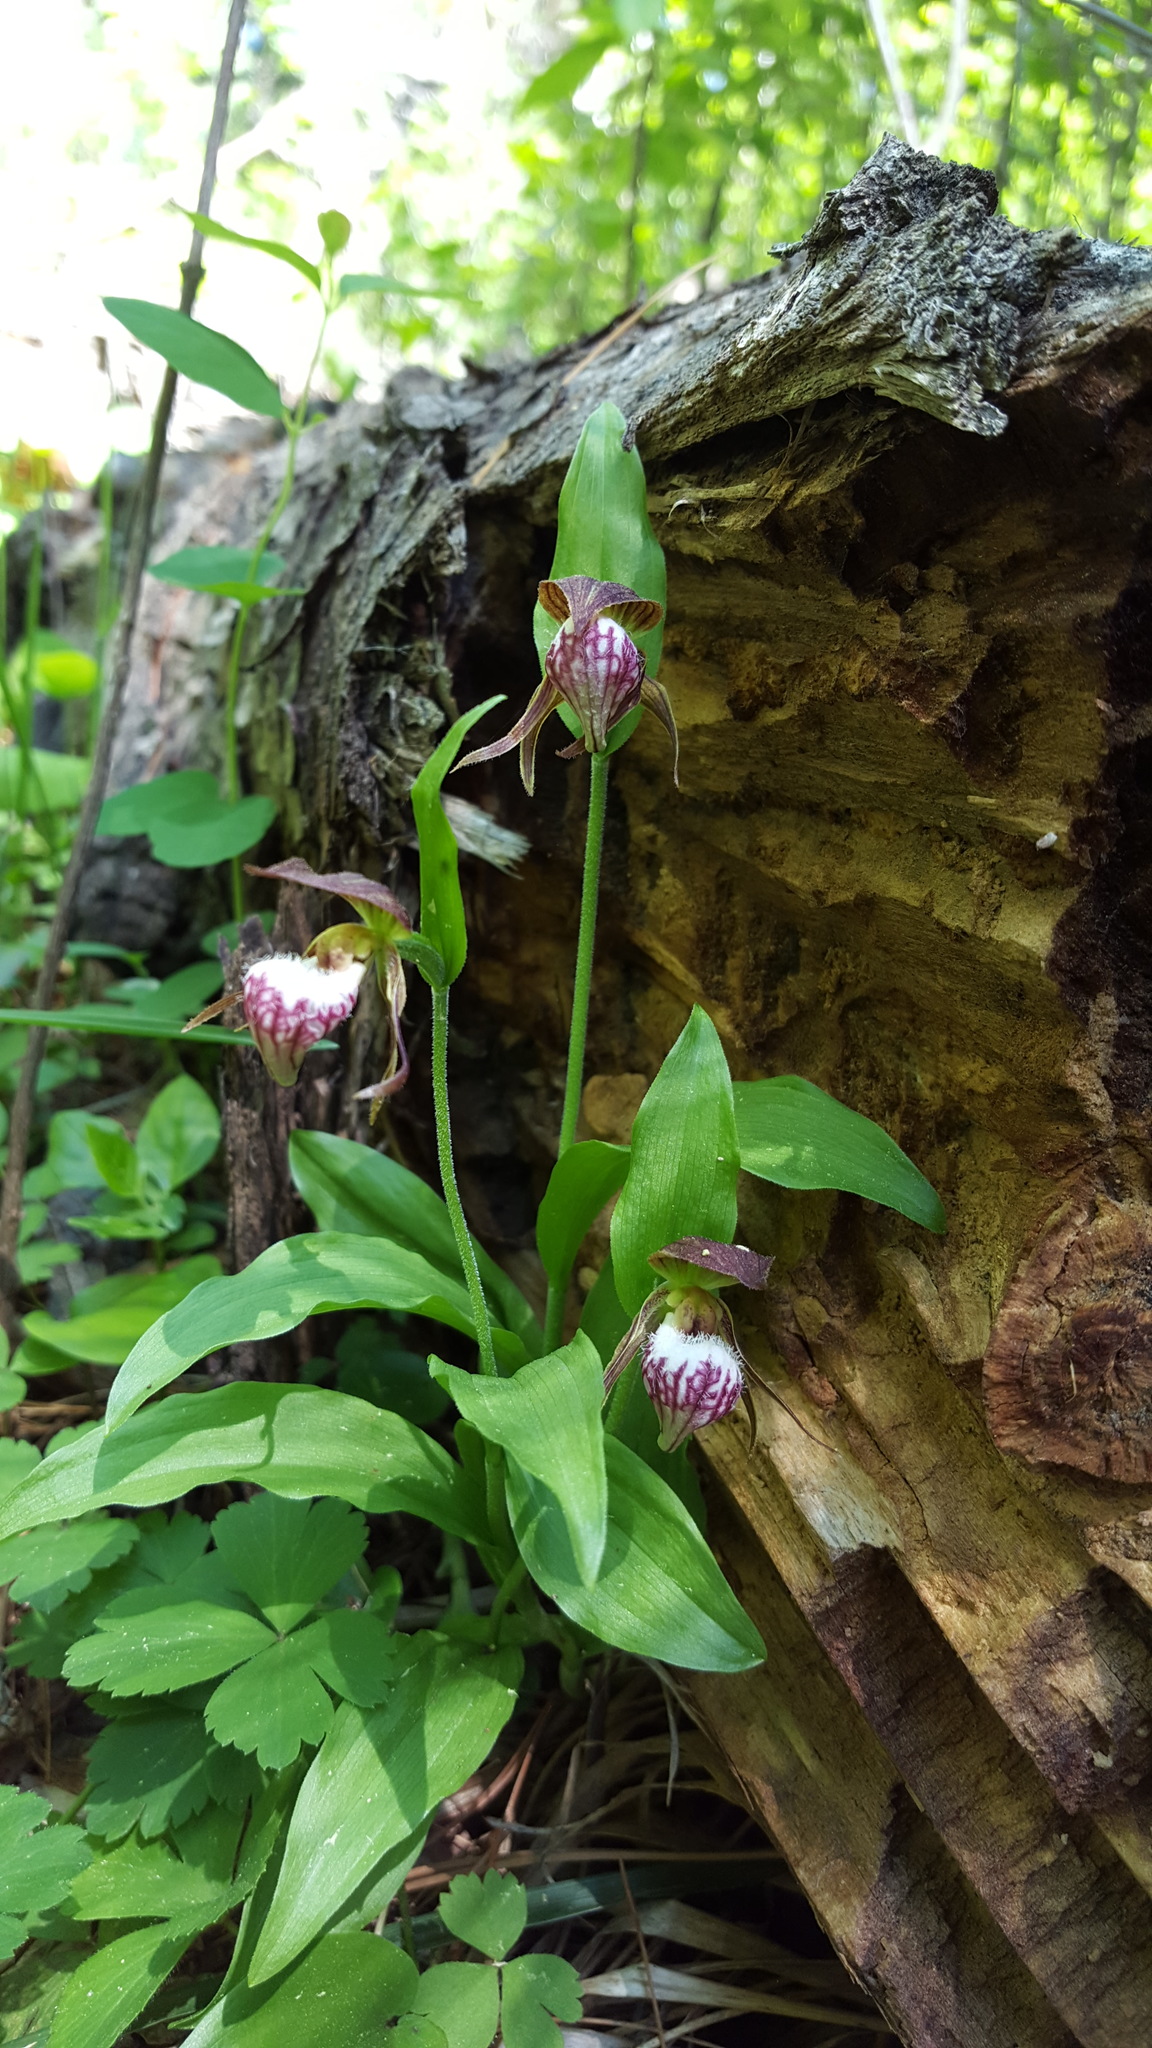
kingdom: Plantae
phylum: Tracheophyta
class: Liliopsida
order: Asparagales
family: Orchidaceae
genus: Cypripedium
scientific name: Cypripedium arietinum
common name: Ram's-head
